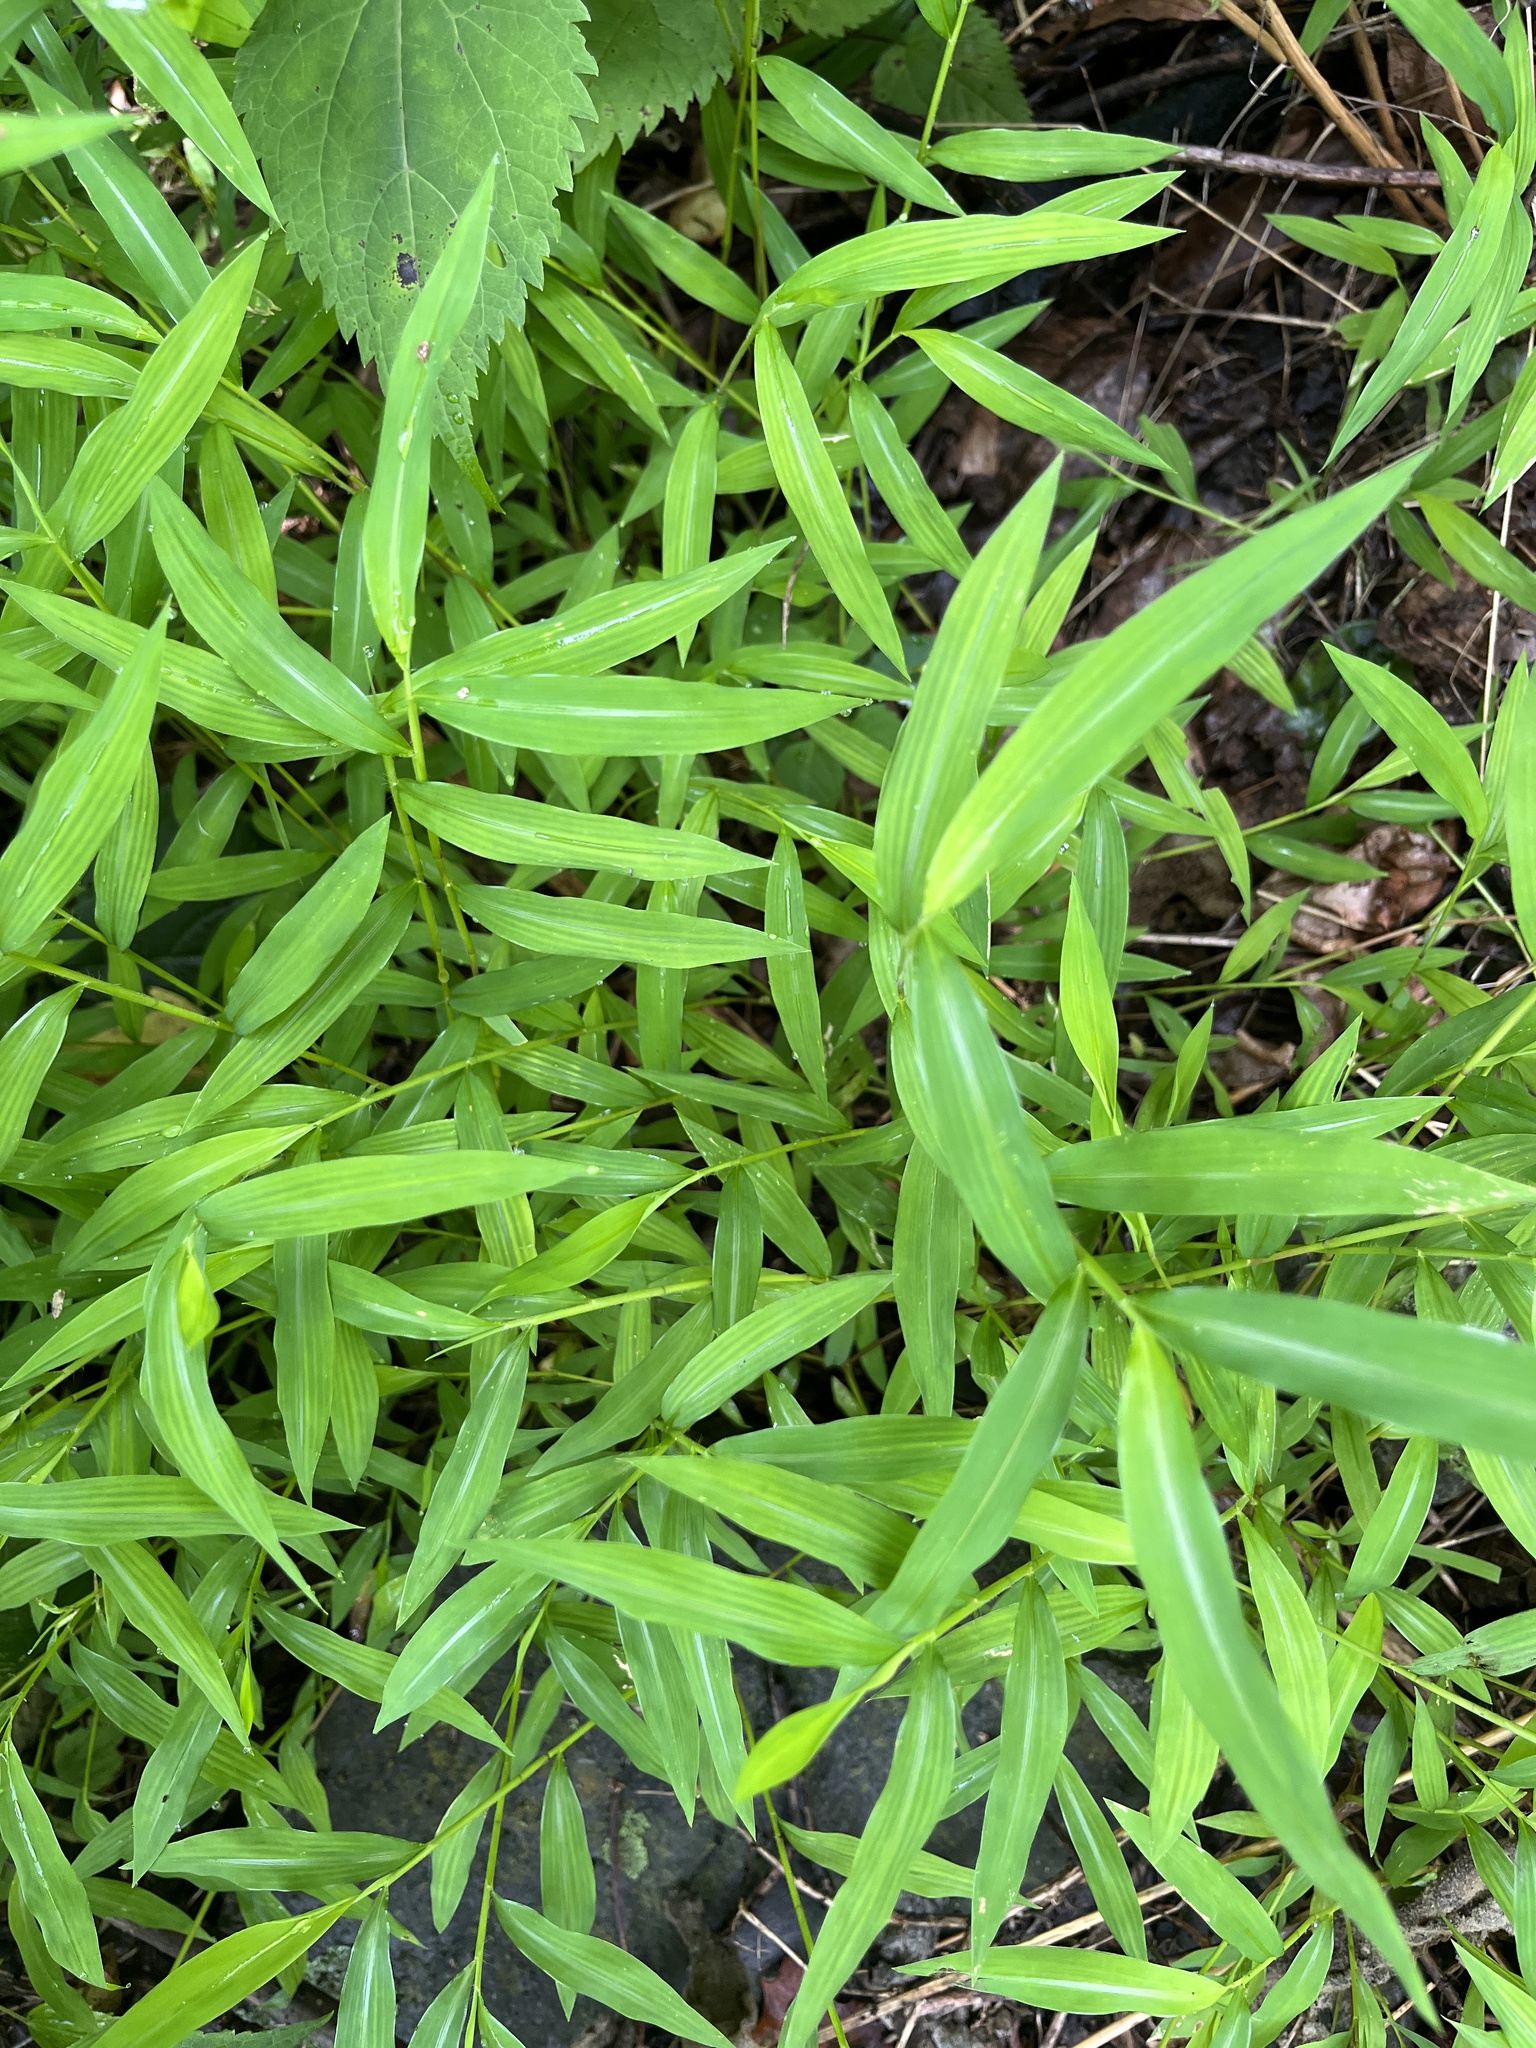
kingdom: Plantae
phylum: Tracheophyta
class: Liliopsida
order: Poales
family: Poaceae
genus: Microstegium
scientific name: Microstegium vimineum
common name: Japanese stiltgrass
